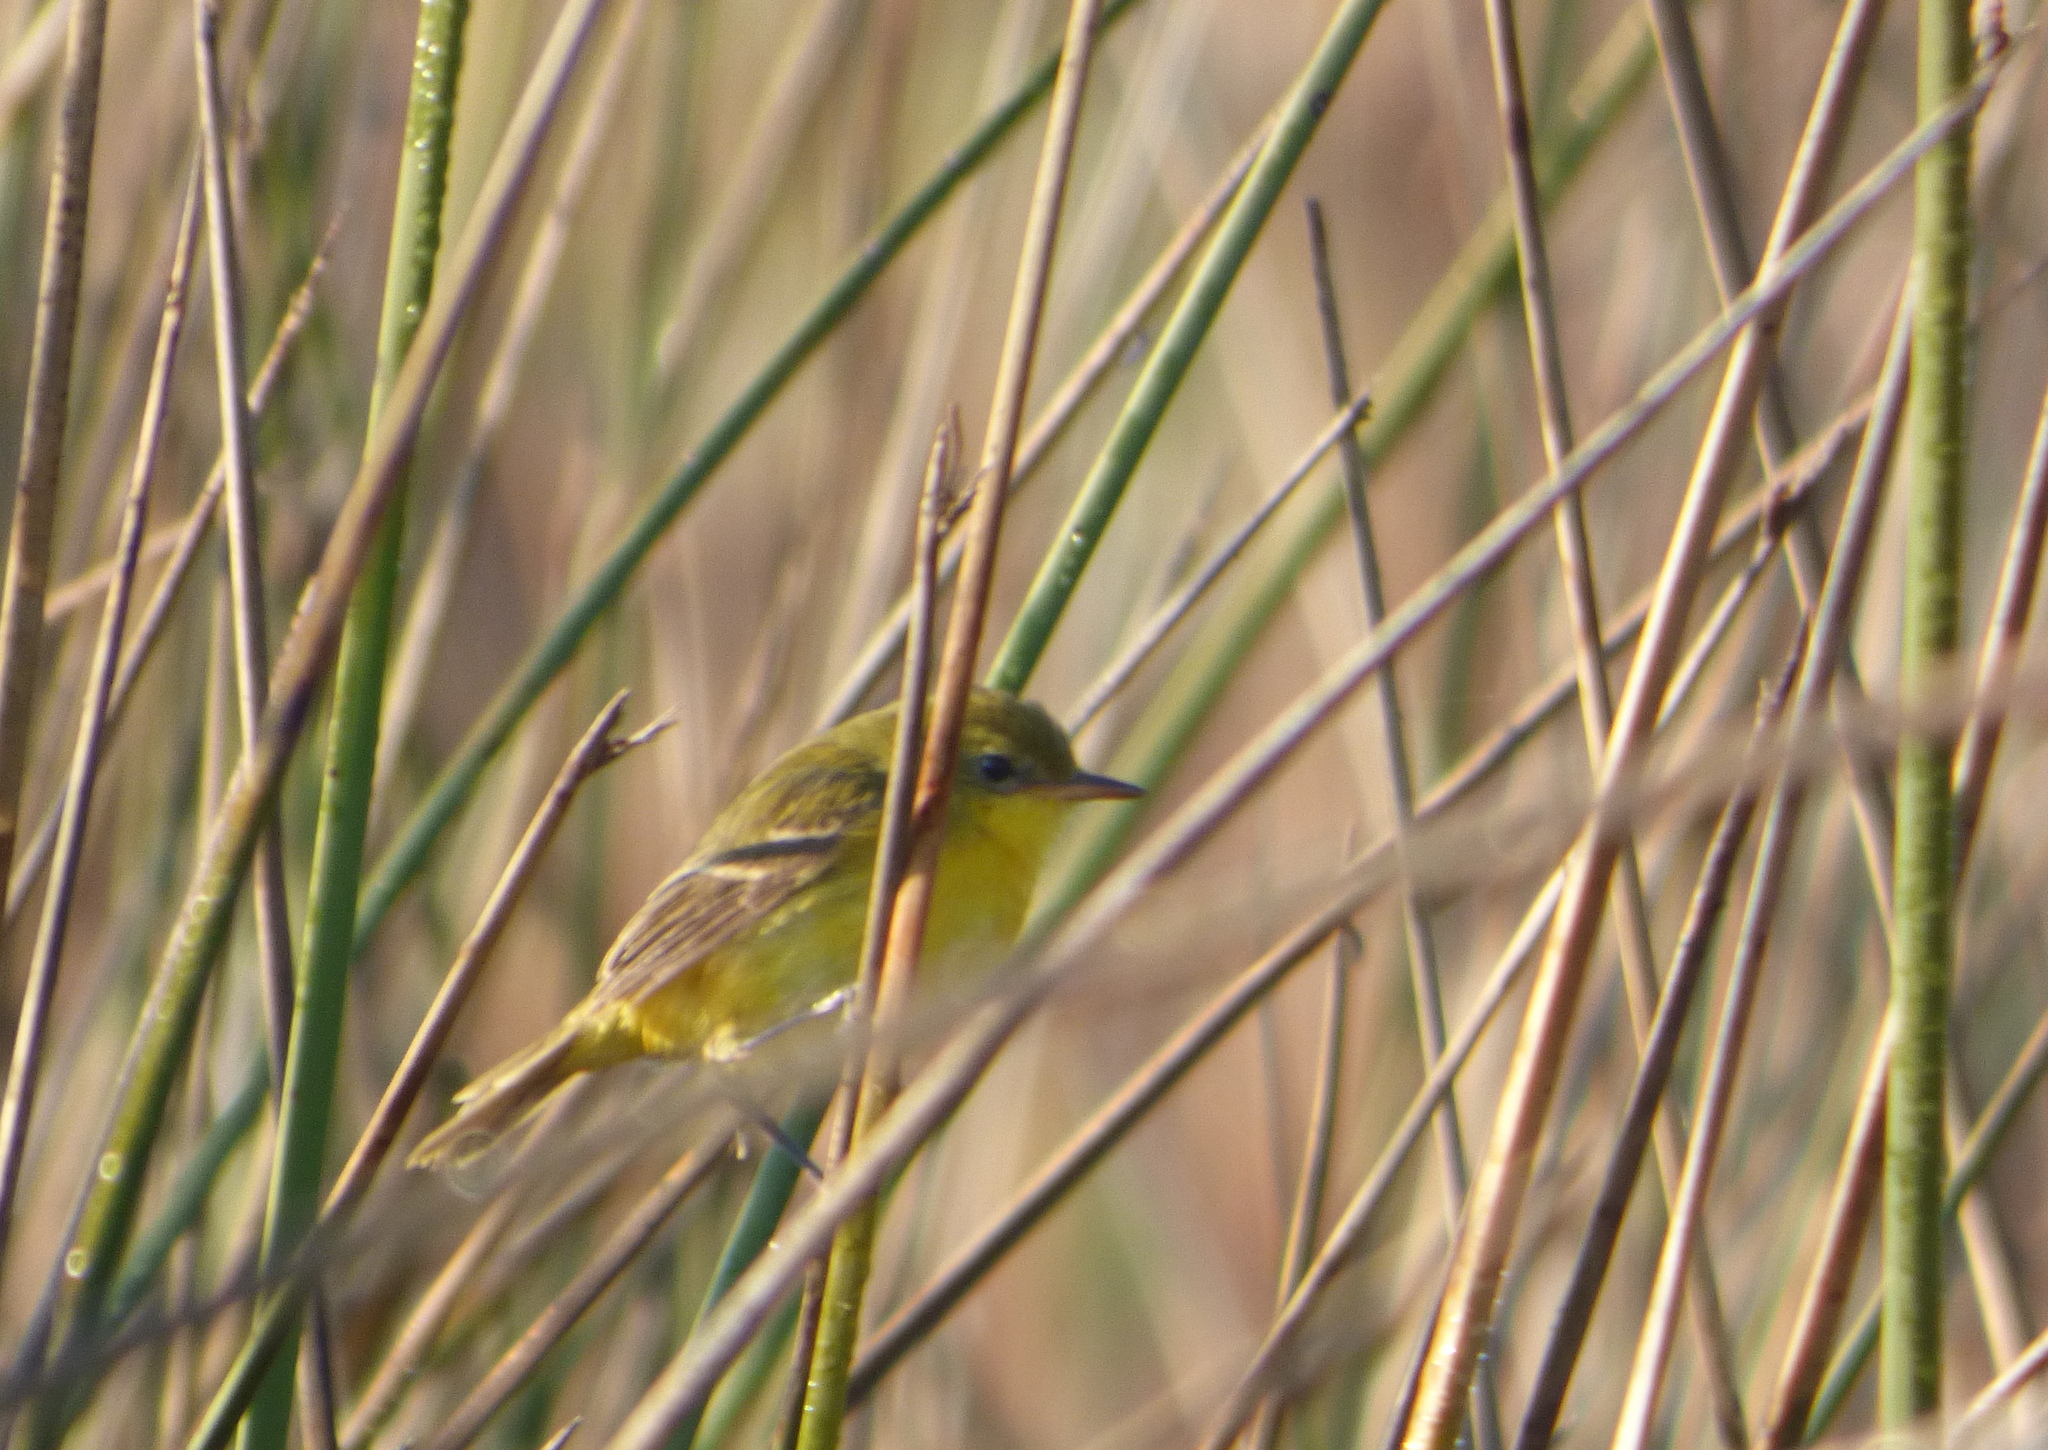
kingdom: Animalia
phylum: Chordata
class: Aves
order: Passeriformes
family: Tyrannidae
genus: Pseudocolopteryx
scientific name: Pseudocolopteryx acutipennis
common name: Subtropical doradito
